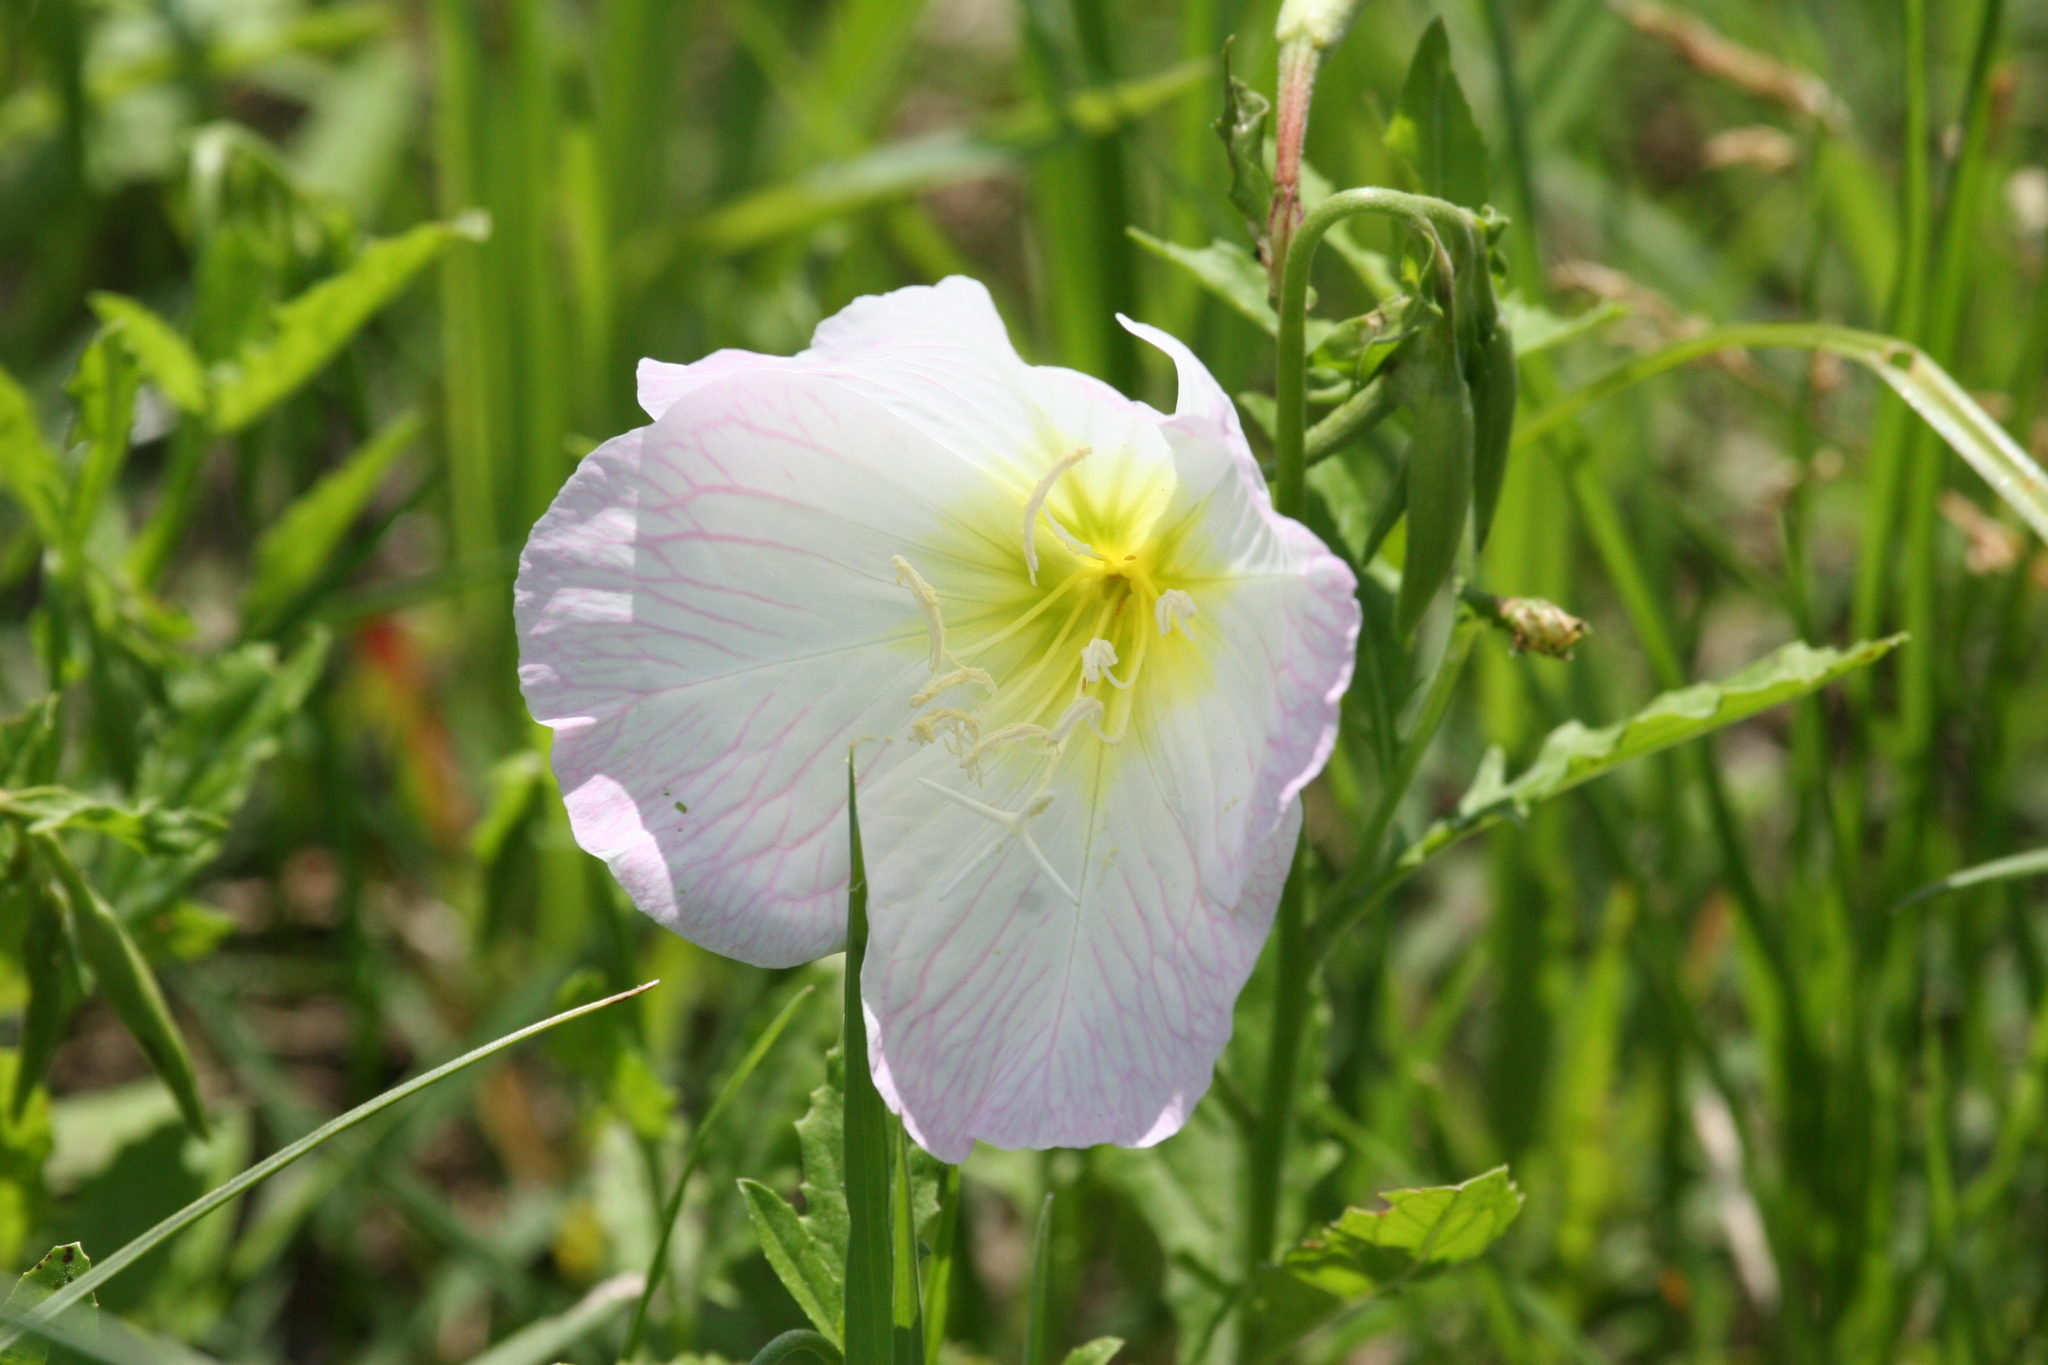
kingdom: Plantae
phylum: Tracheophyta
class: Magnoliopsida
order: Myrtales
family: Onagraceae
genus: Oenothera
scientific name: Oenothera speciosa
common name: White evening-primrose
